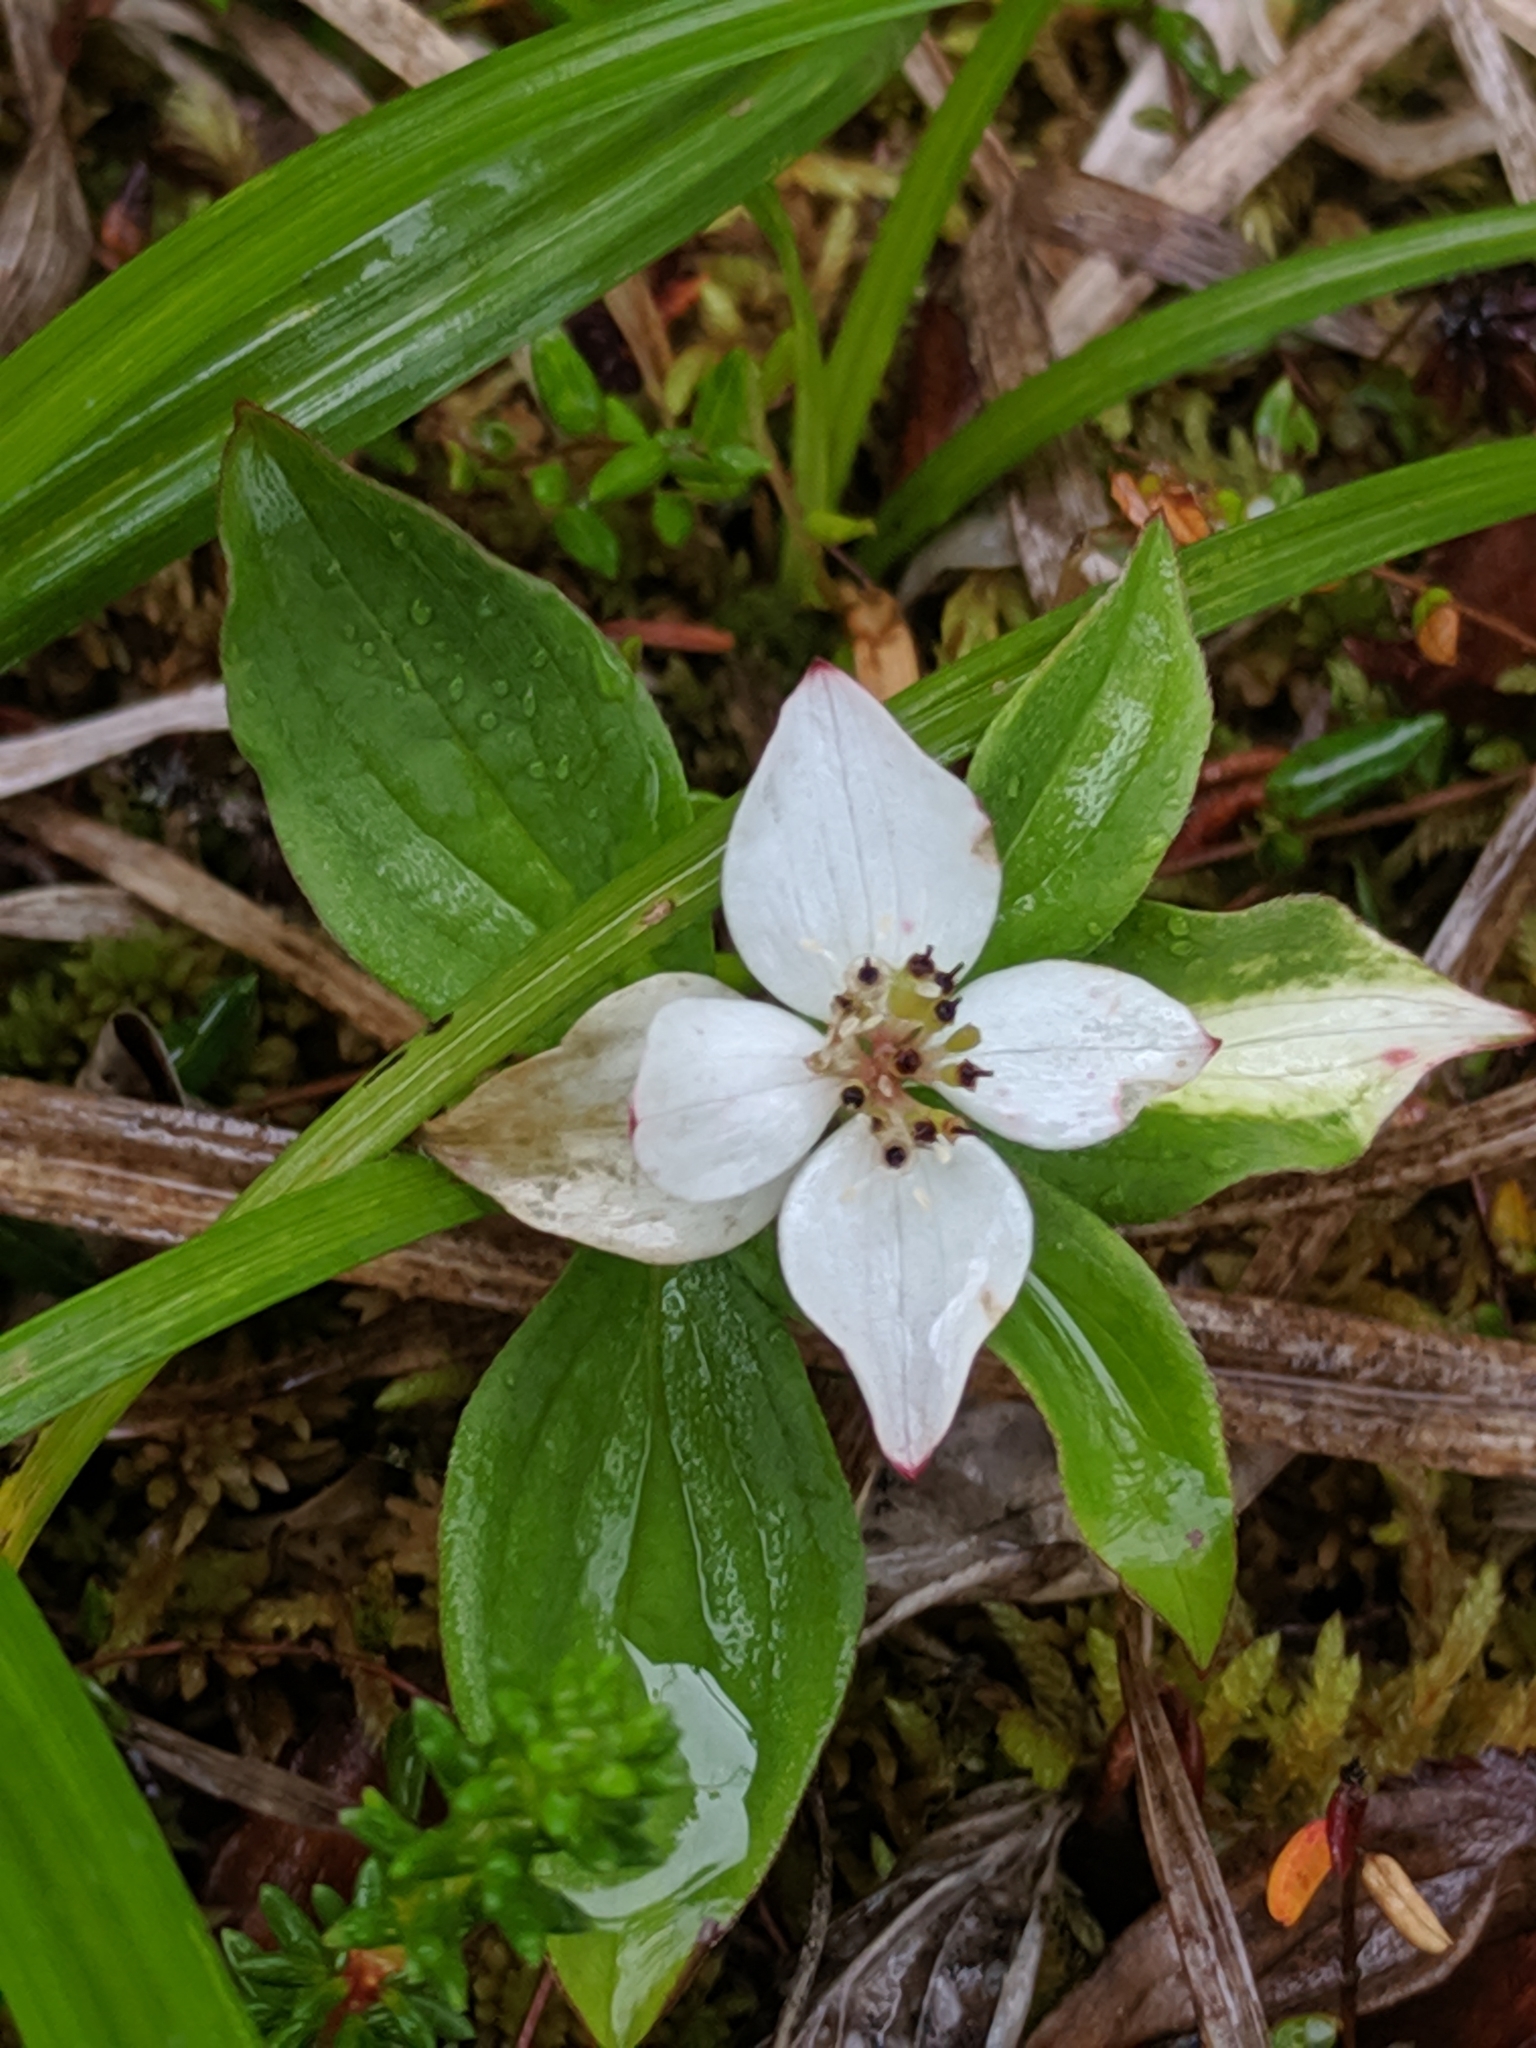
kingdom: Plantae
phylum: Tracheophyta
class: Magnoliopsida
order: Cornales
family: Cornaceae
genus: Cornus
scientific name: Cornus canadensis
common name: Creeping dogwood
